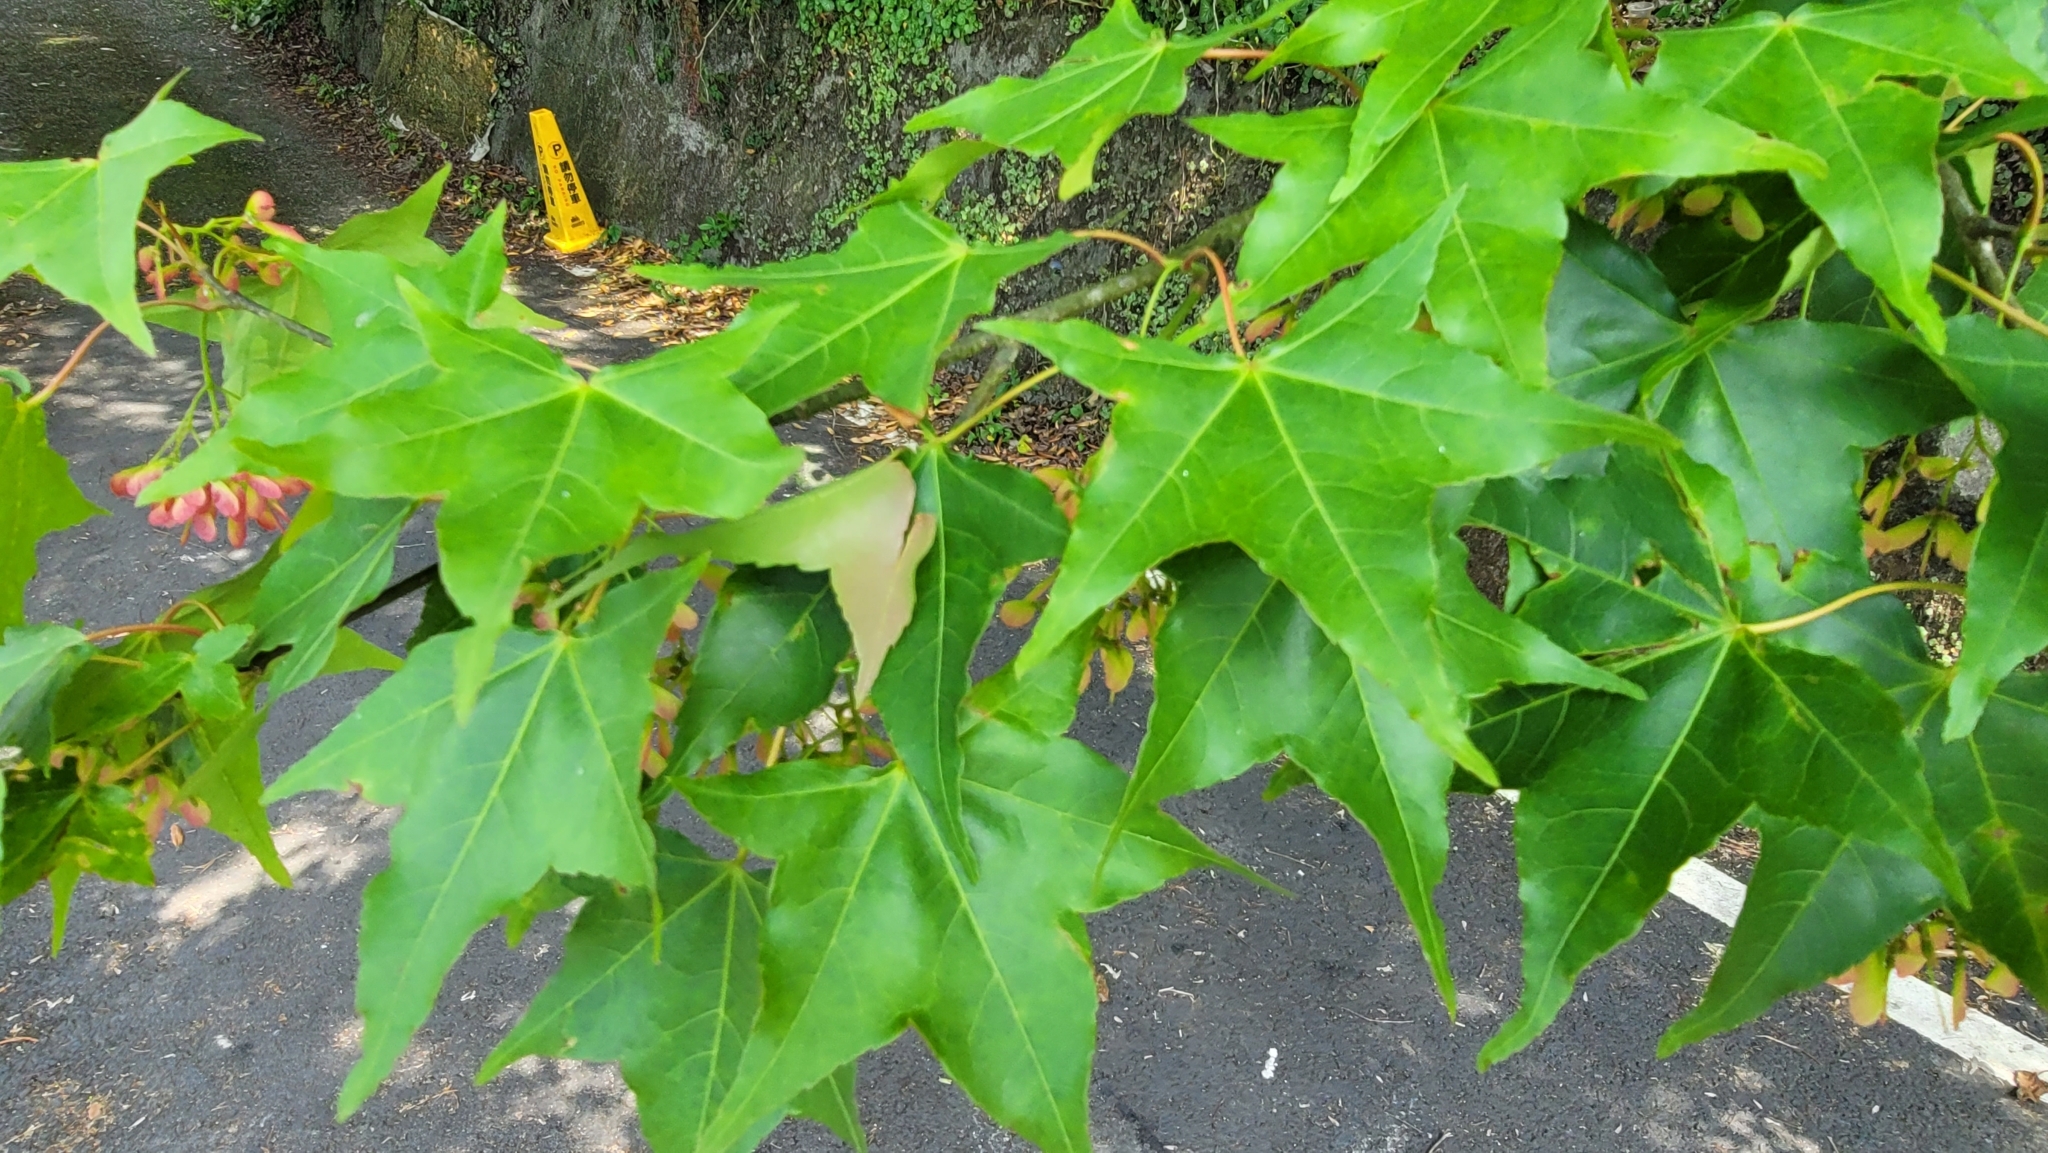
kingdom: Plantae
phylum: Tracheophyta
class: Magnoliopsida
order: Sapindales
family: Sapindaceae
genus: Acer
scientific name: Acer serrulatum
